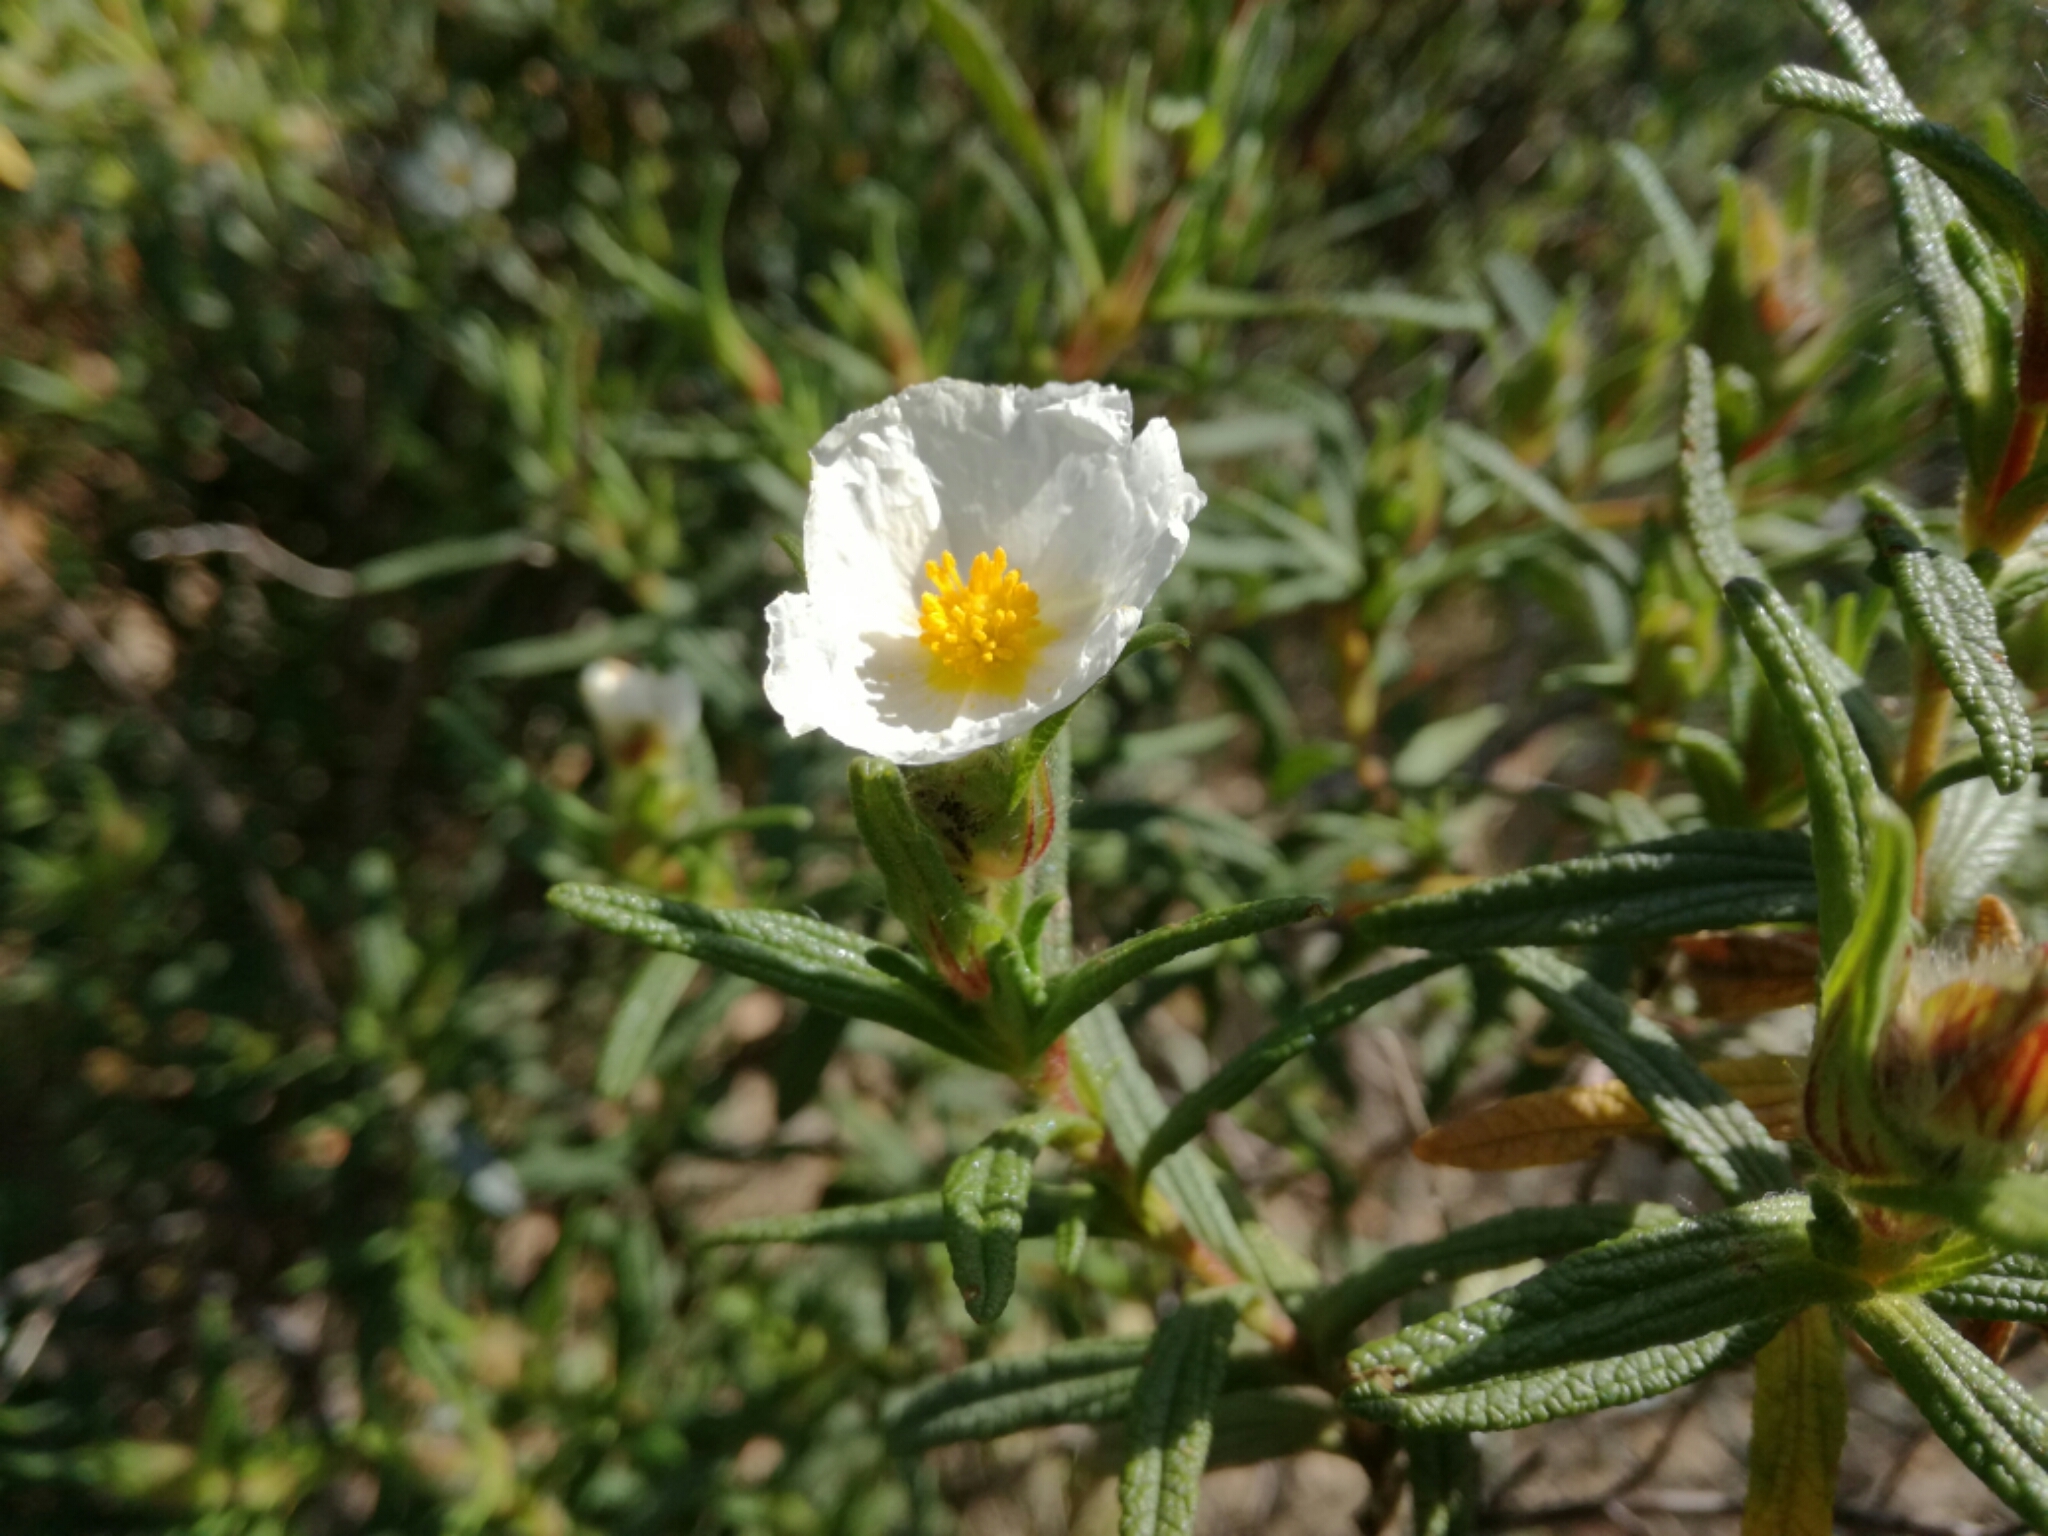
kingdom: Plantae
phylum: Tracheophyta
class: Magnoliopsida
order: Malvales
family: Cistaceae
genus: Cistus
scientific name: Cistus monspeliensis
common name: Montpelier cistus
